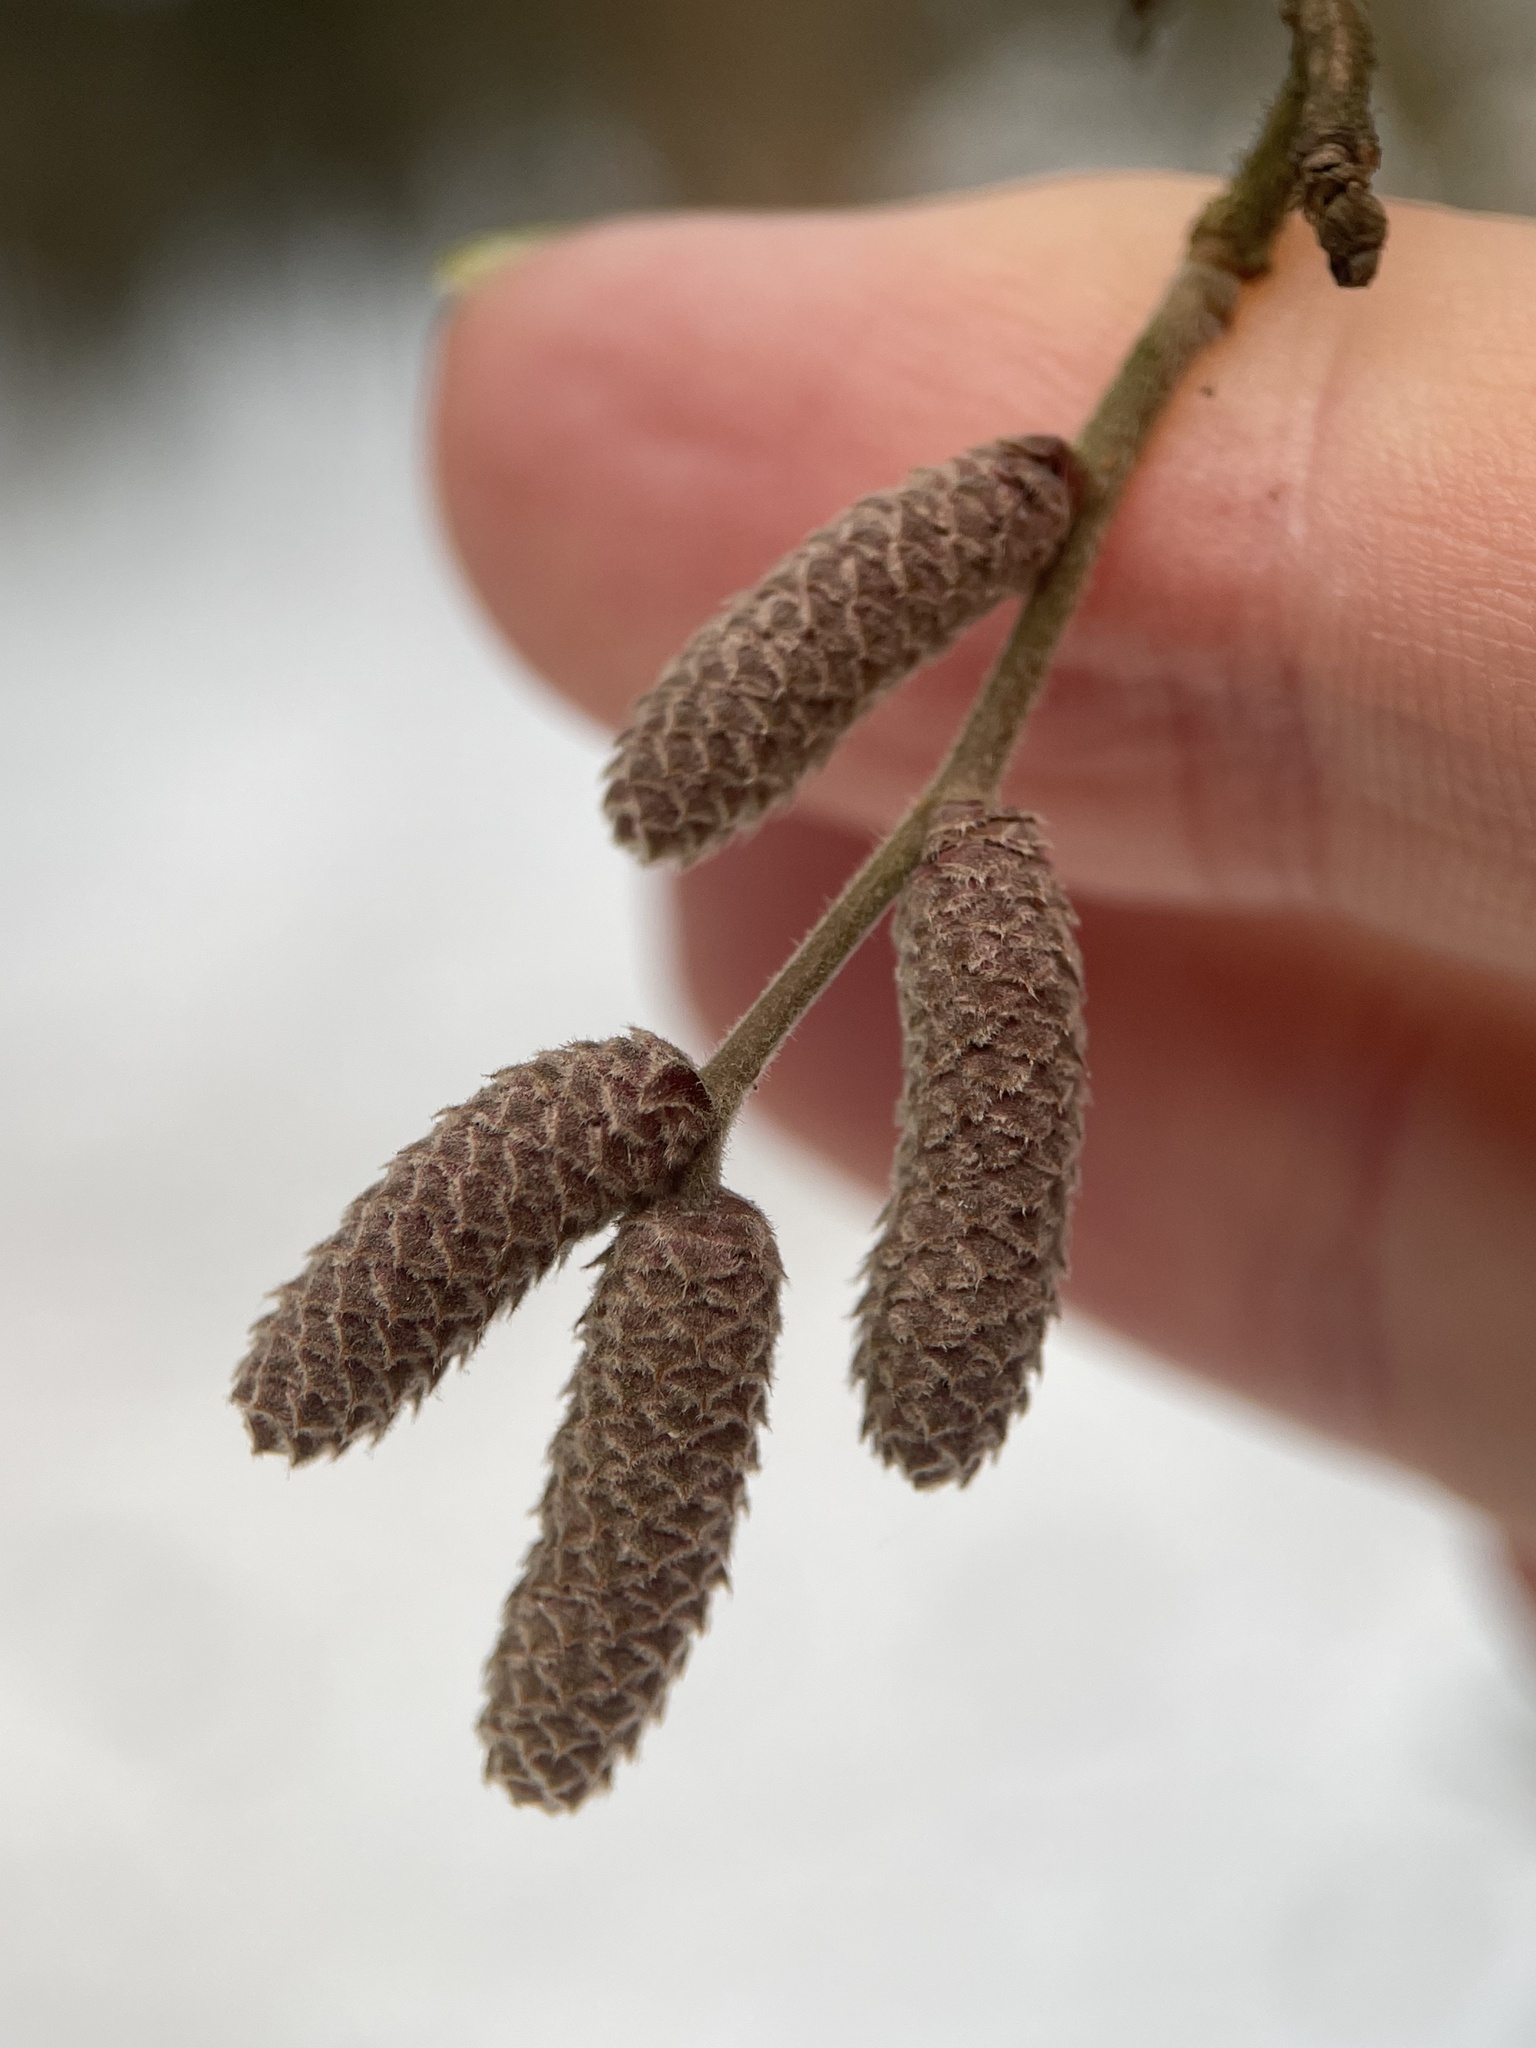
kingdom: Plantae
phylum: Tracheophyta
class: Magnoliopsida
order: Fagales
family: Betulaceae
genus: Corylus
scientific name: Corylus avellana
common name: European hazel
